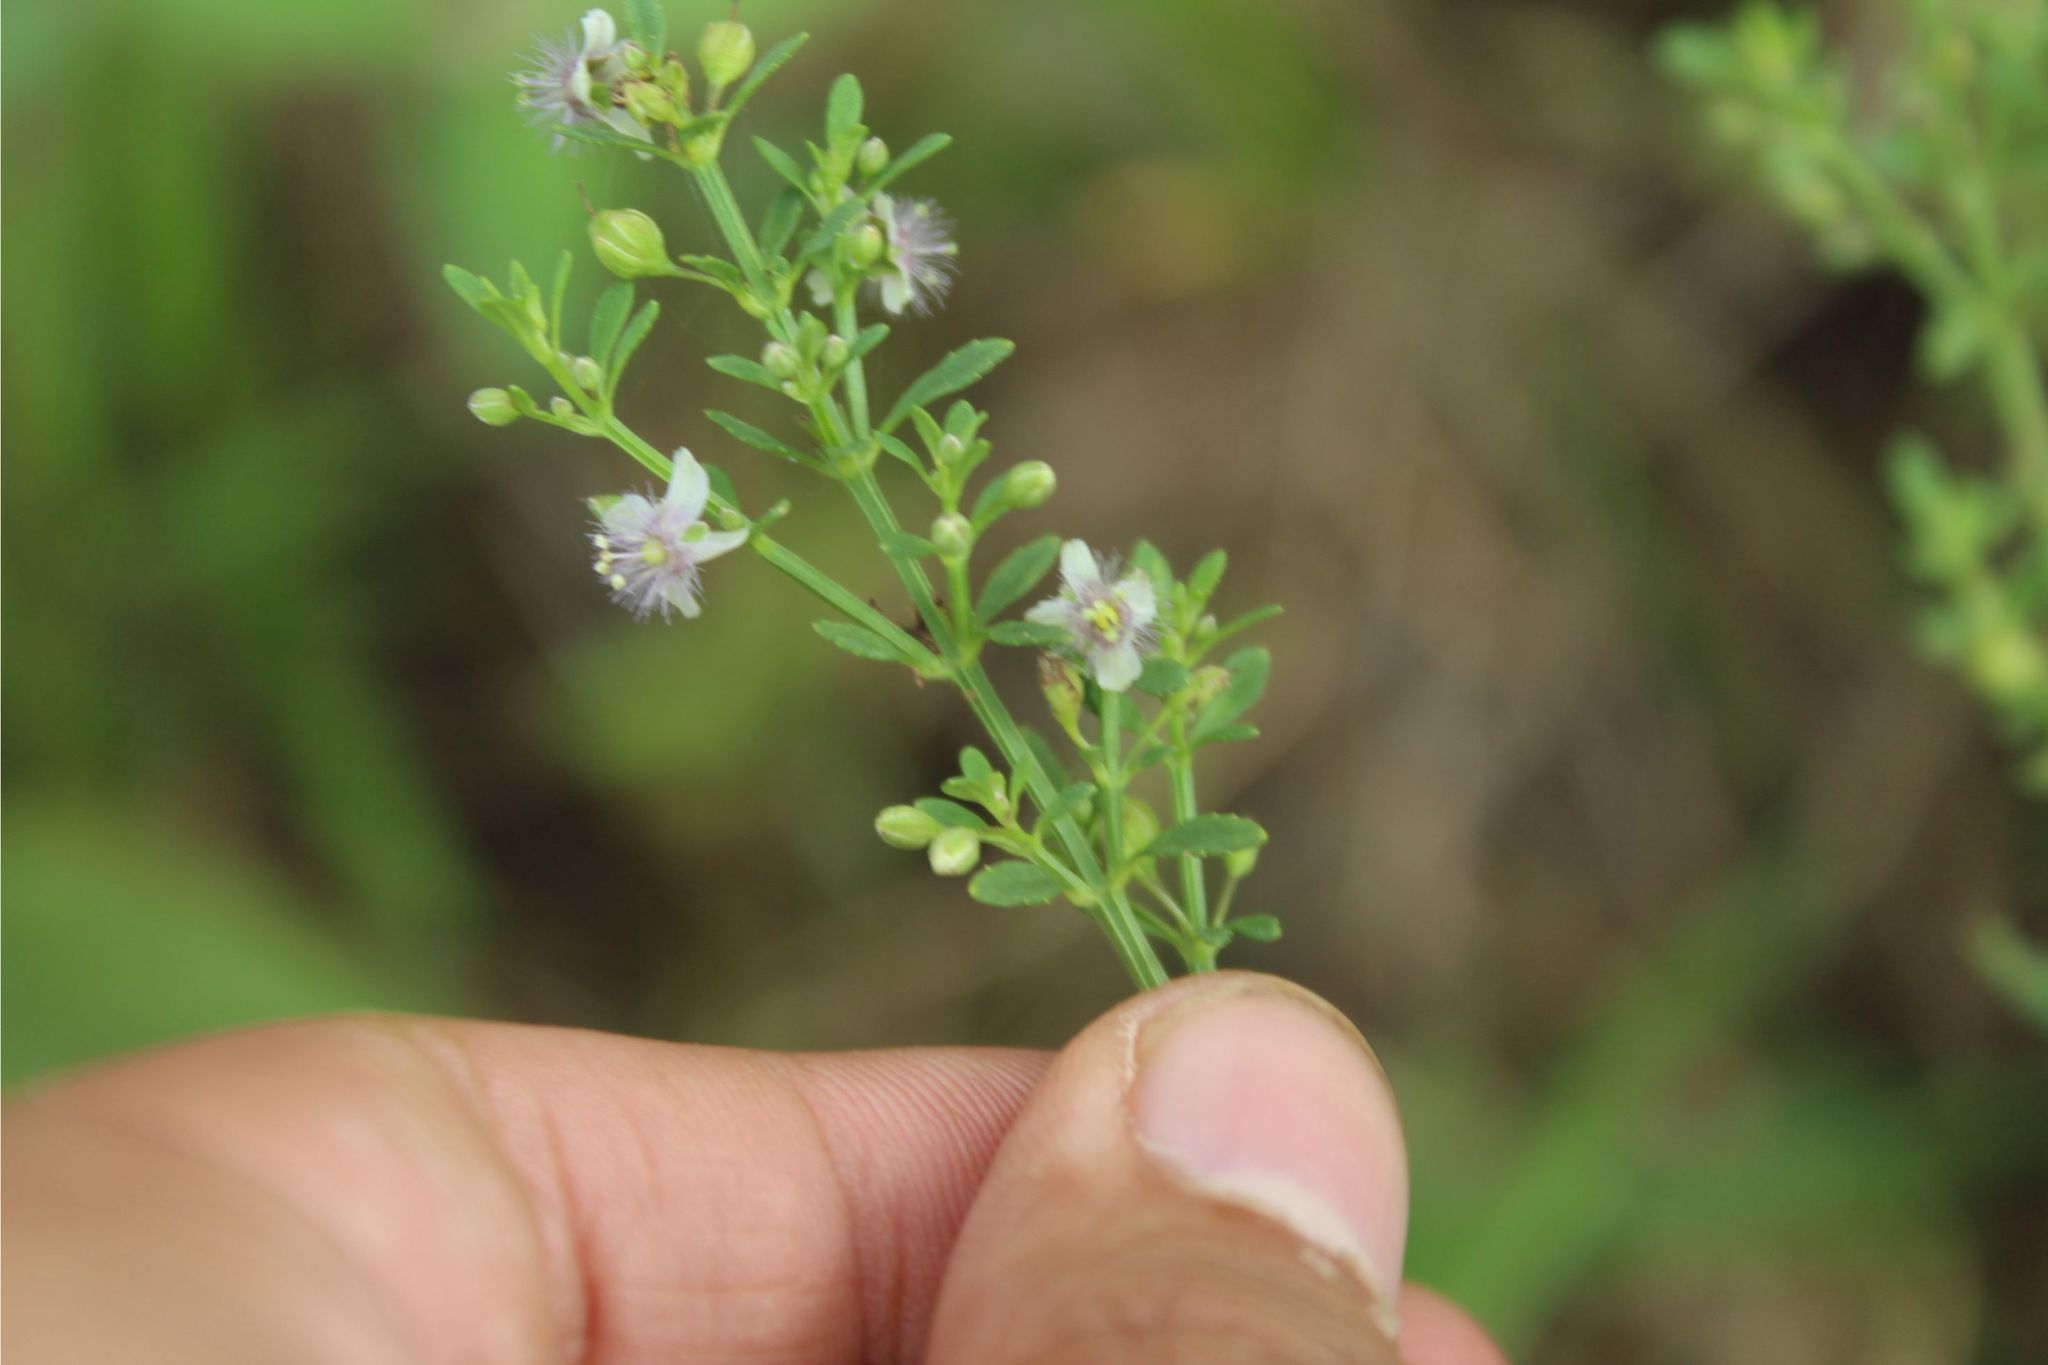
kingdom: Plantae
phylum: Tracheophyta
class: Magnoliopsida
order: Lamiales
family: Plantaginaceae
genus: Scoparia
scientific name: Scoparia dulcis
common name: Scoparia-weed
